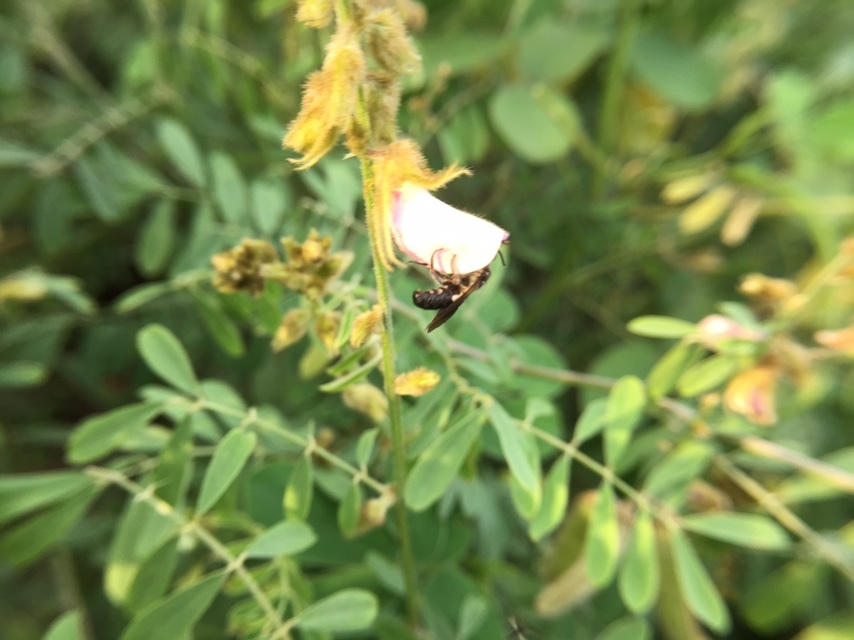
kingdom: Animalia
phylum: Arthropoda
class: Insecta
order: Hymenoptera
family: Megachilidae
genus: Megachile
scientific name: Megachile disjuncta
